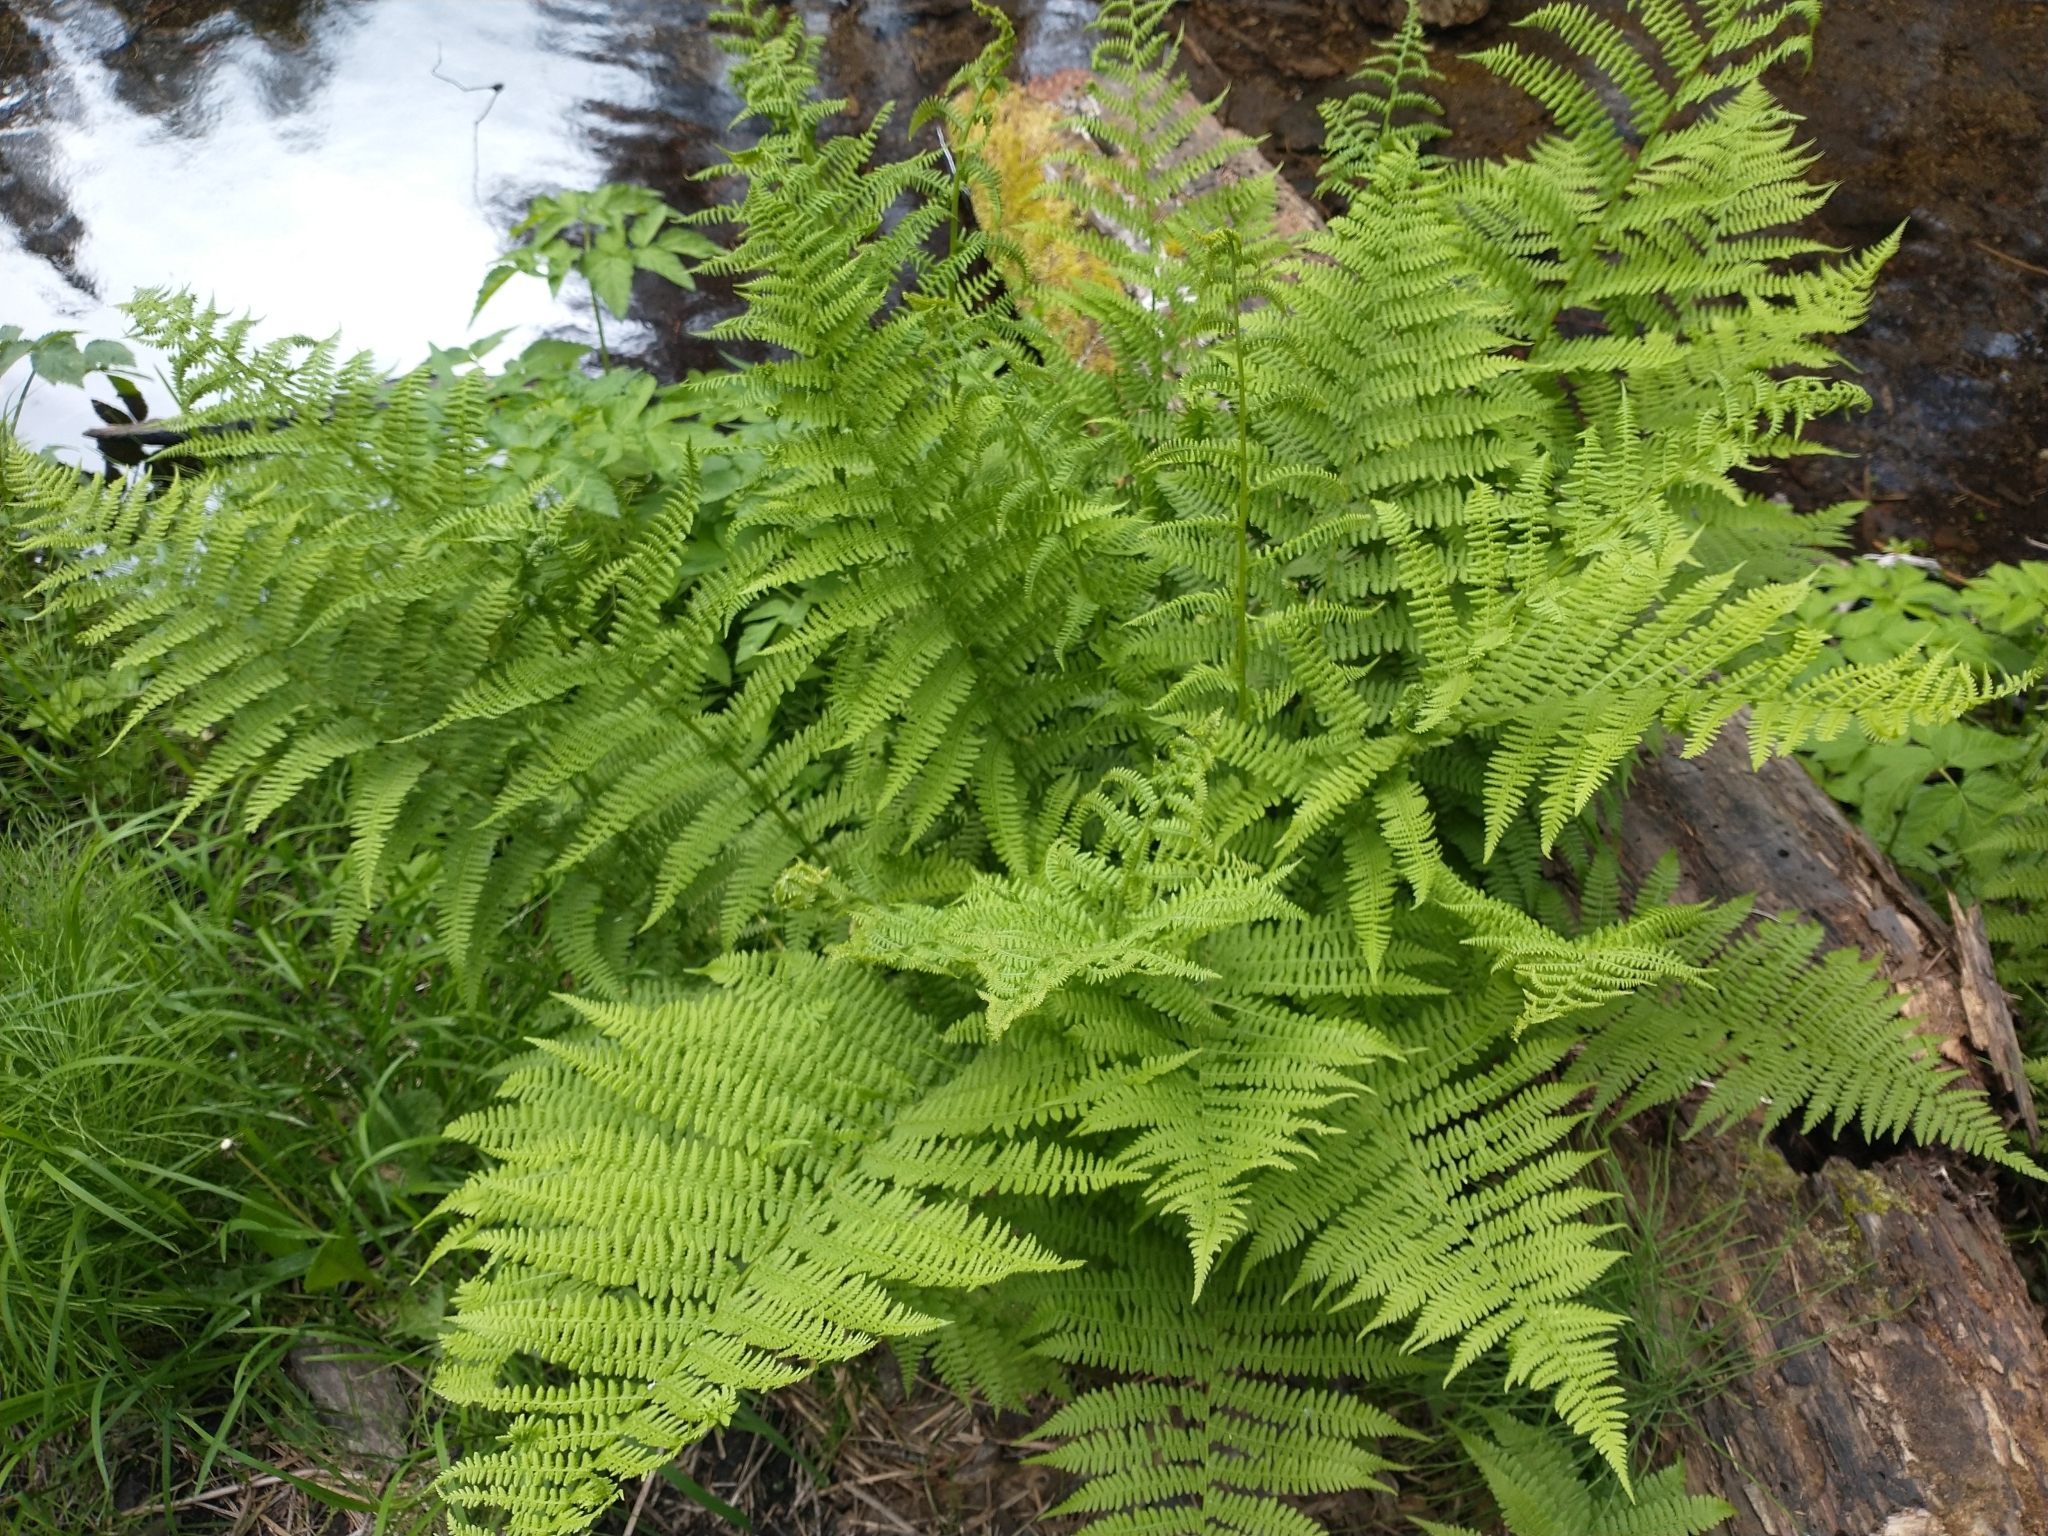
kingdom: Plantae
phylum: Tracheophyta
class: Polypodiopsida
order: Polypodiales
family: Athyriaceae
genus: Athyrium
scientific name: Athyrium cyclosorum
